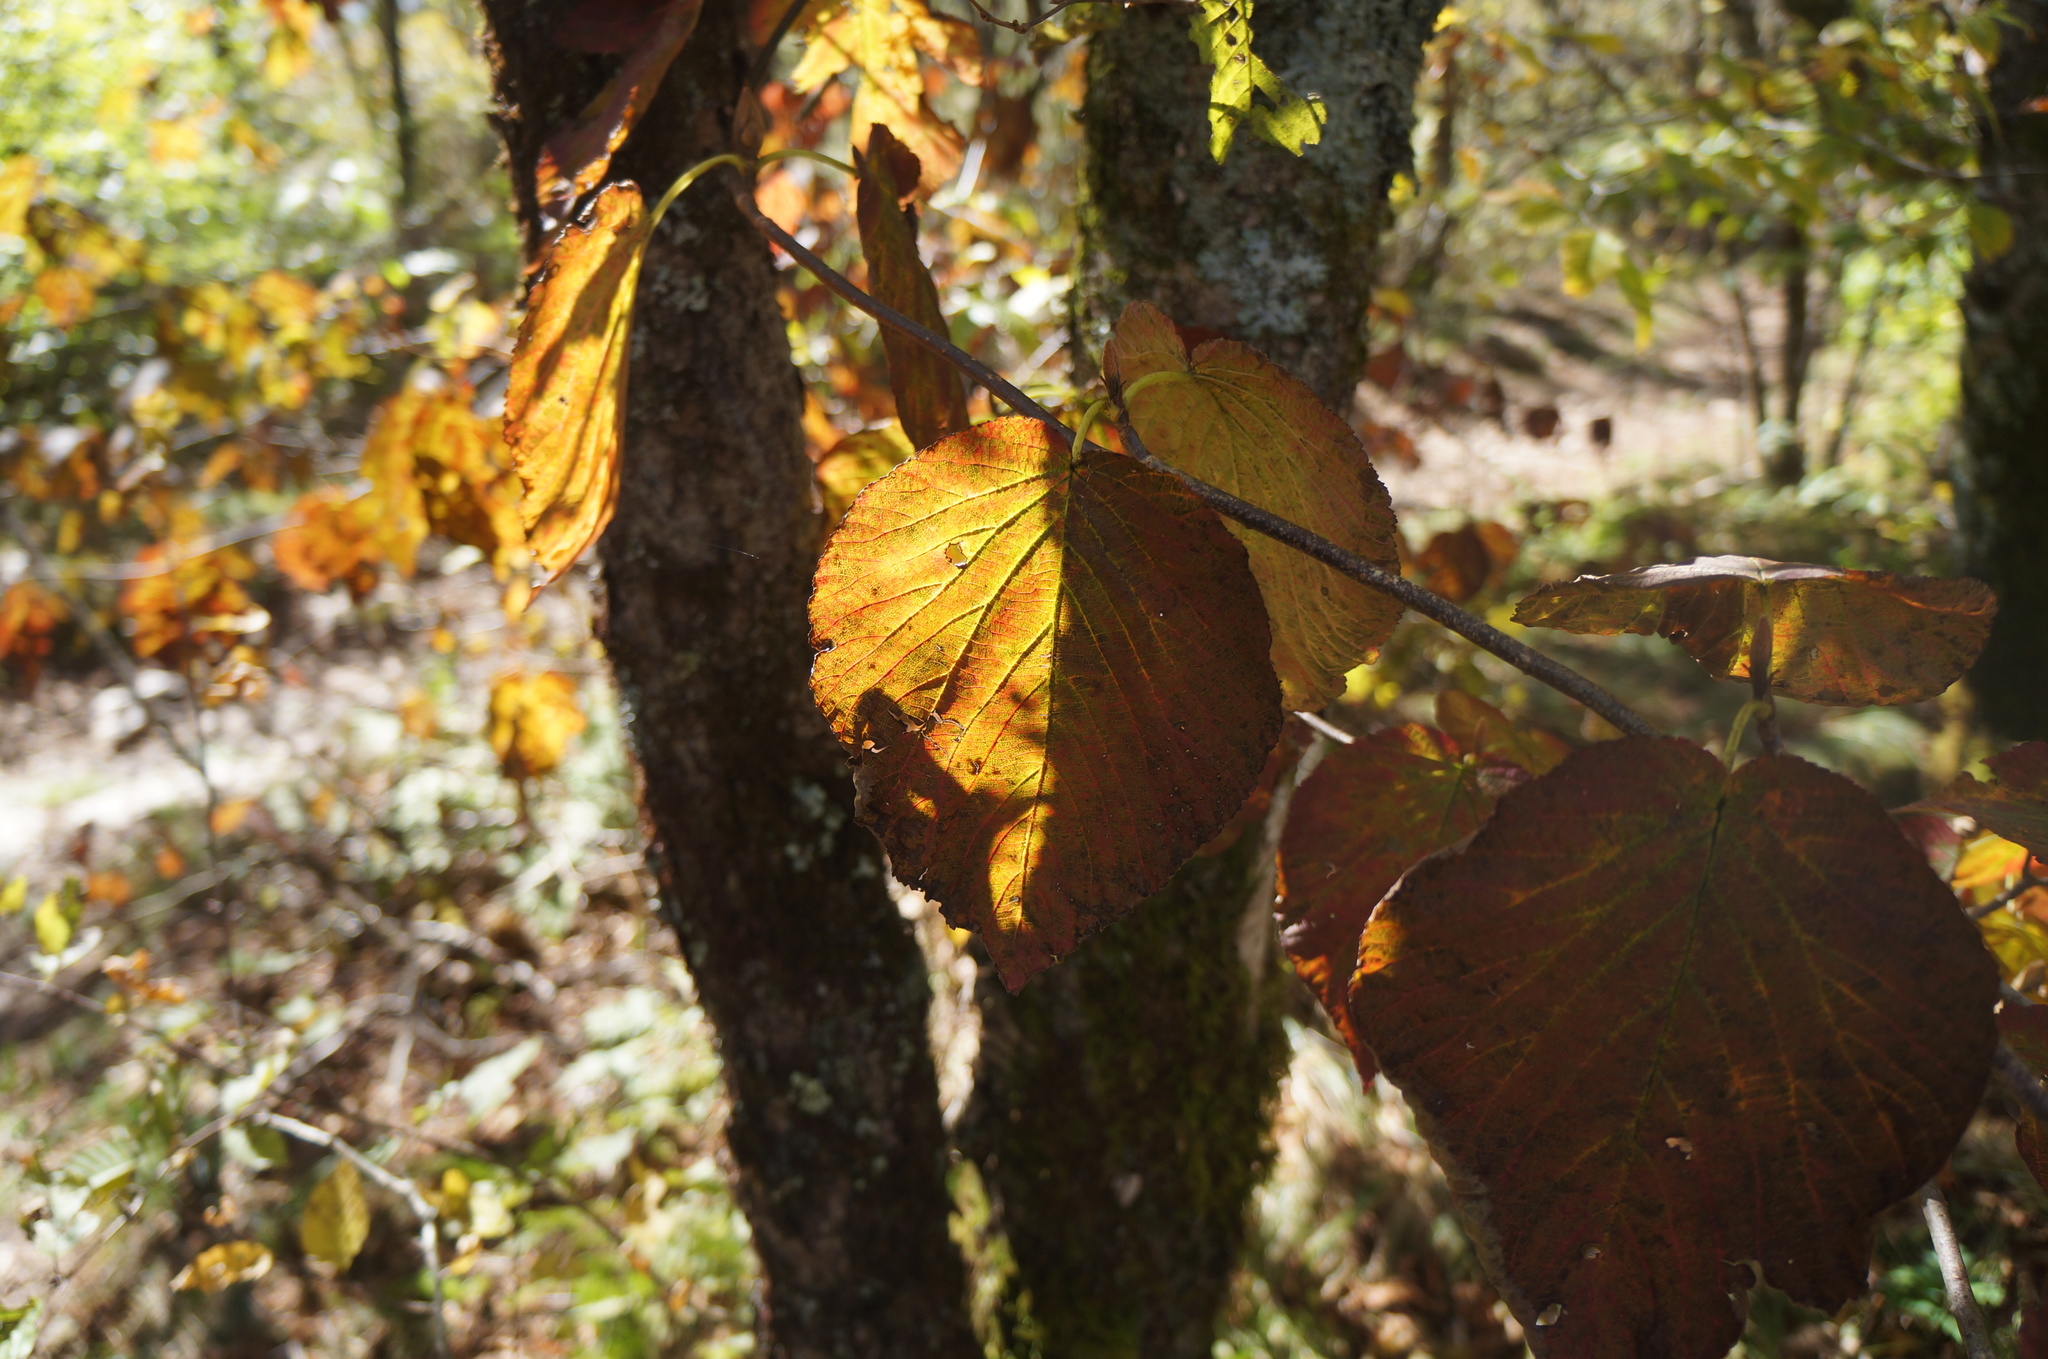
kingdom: Plantae
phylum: Tracheophyta
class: Magnoliopsida
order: Dipsacales
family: Viburnaceae
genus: Viburnum
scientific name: Viburnum lantanoides
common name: Hobblebush
